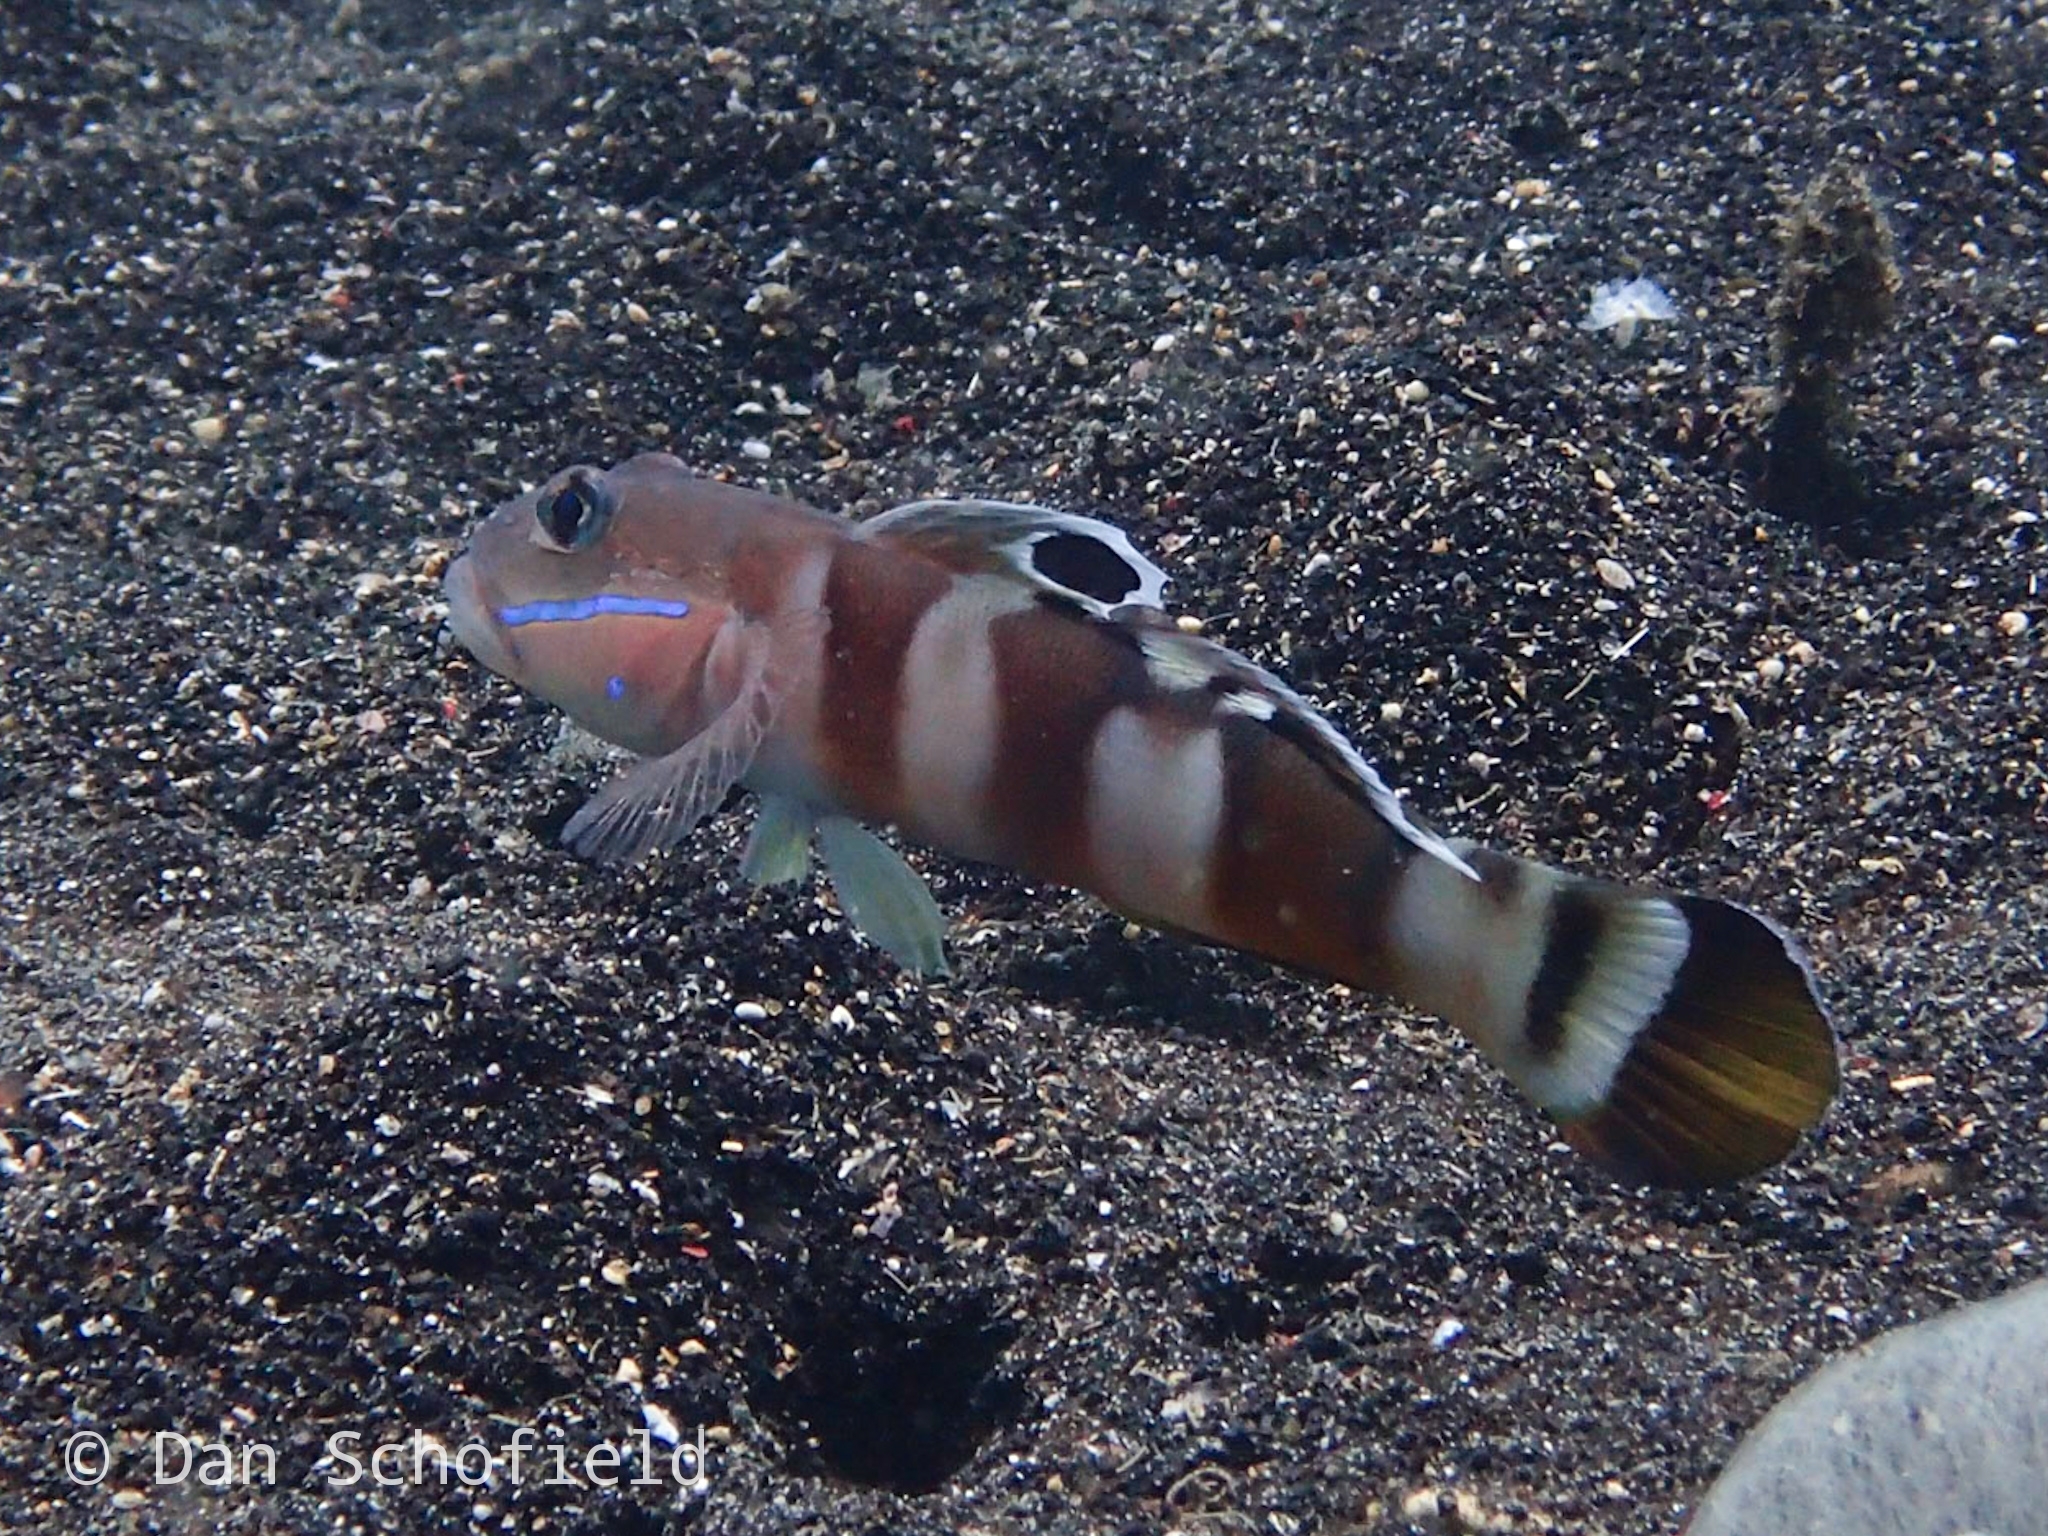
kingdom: Animalia
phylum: Chordata
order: Perciformes
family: Gobiidae
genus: Valenciennea
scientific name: Valenciennea wardii
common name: Broad-barred sleeper-goby
